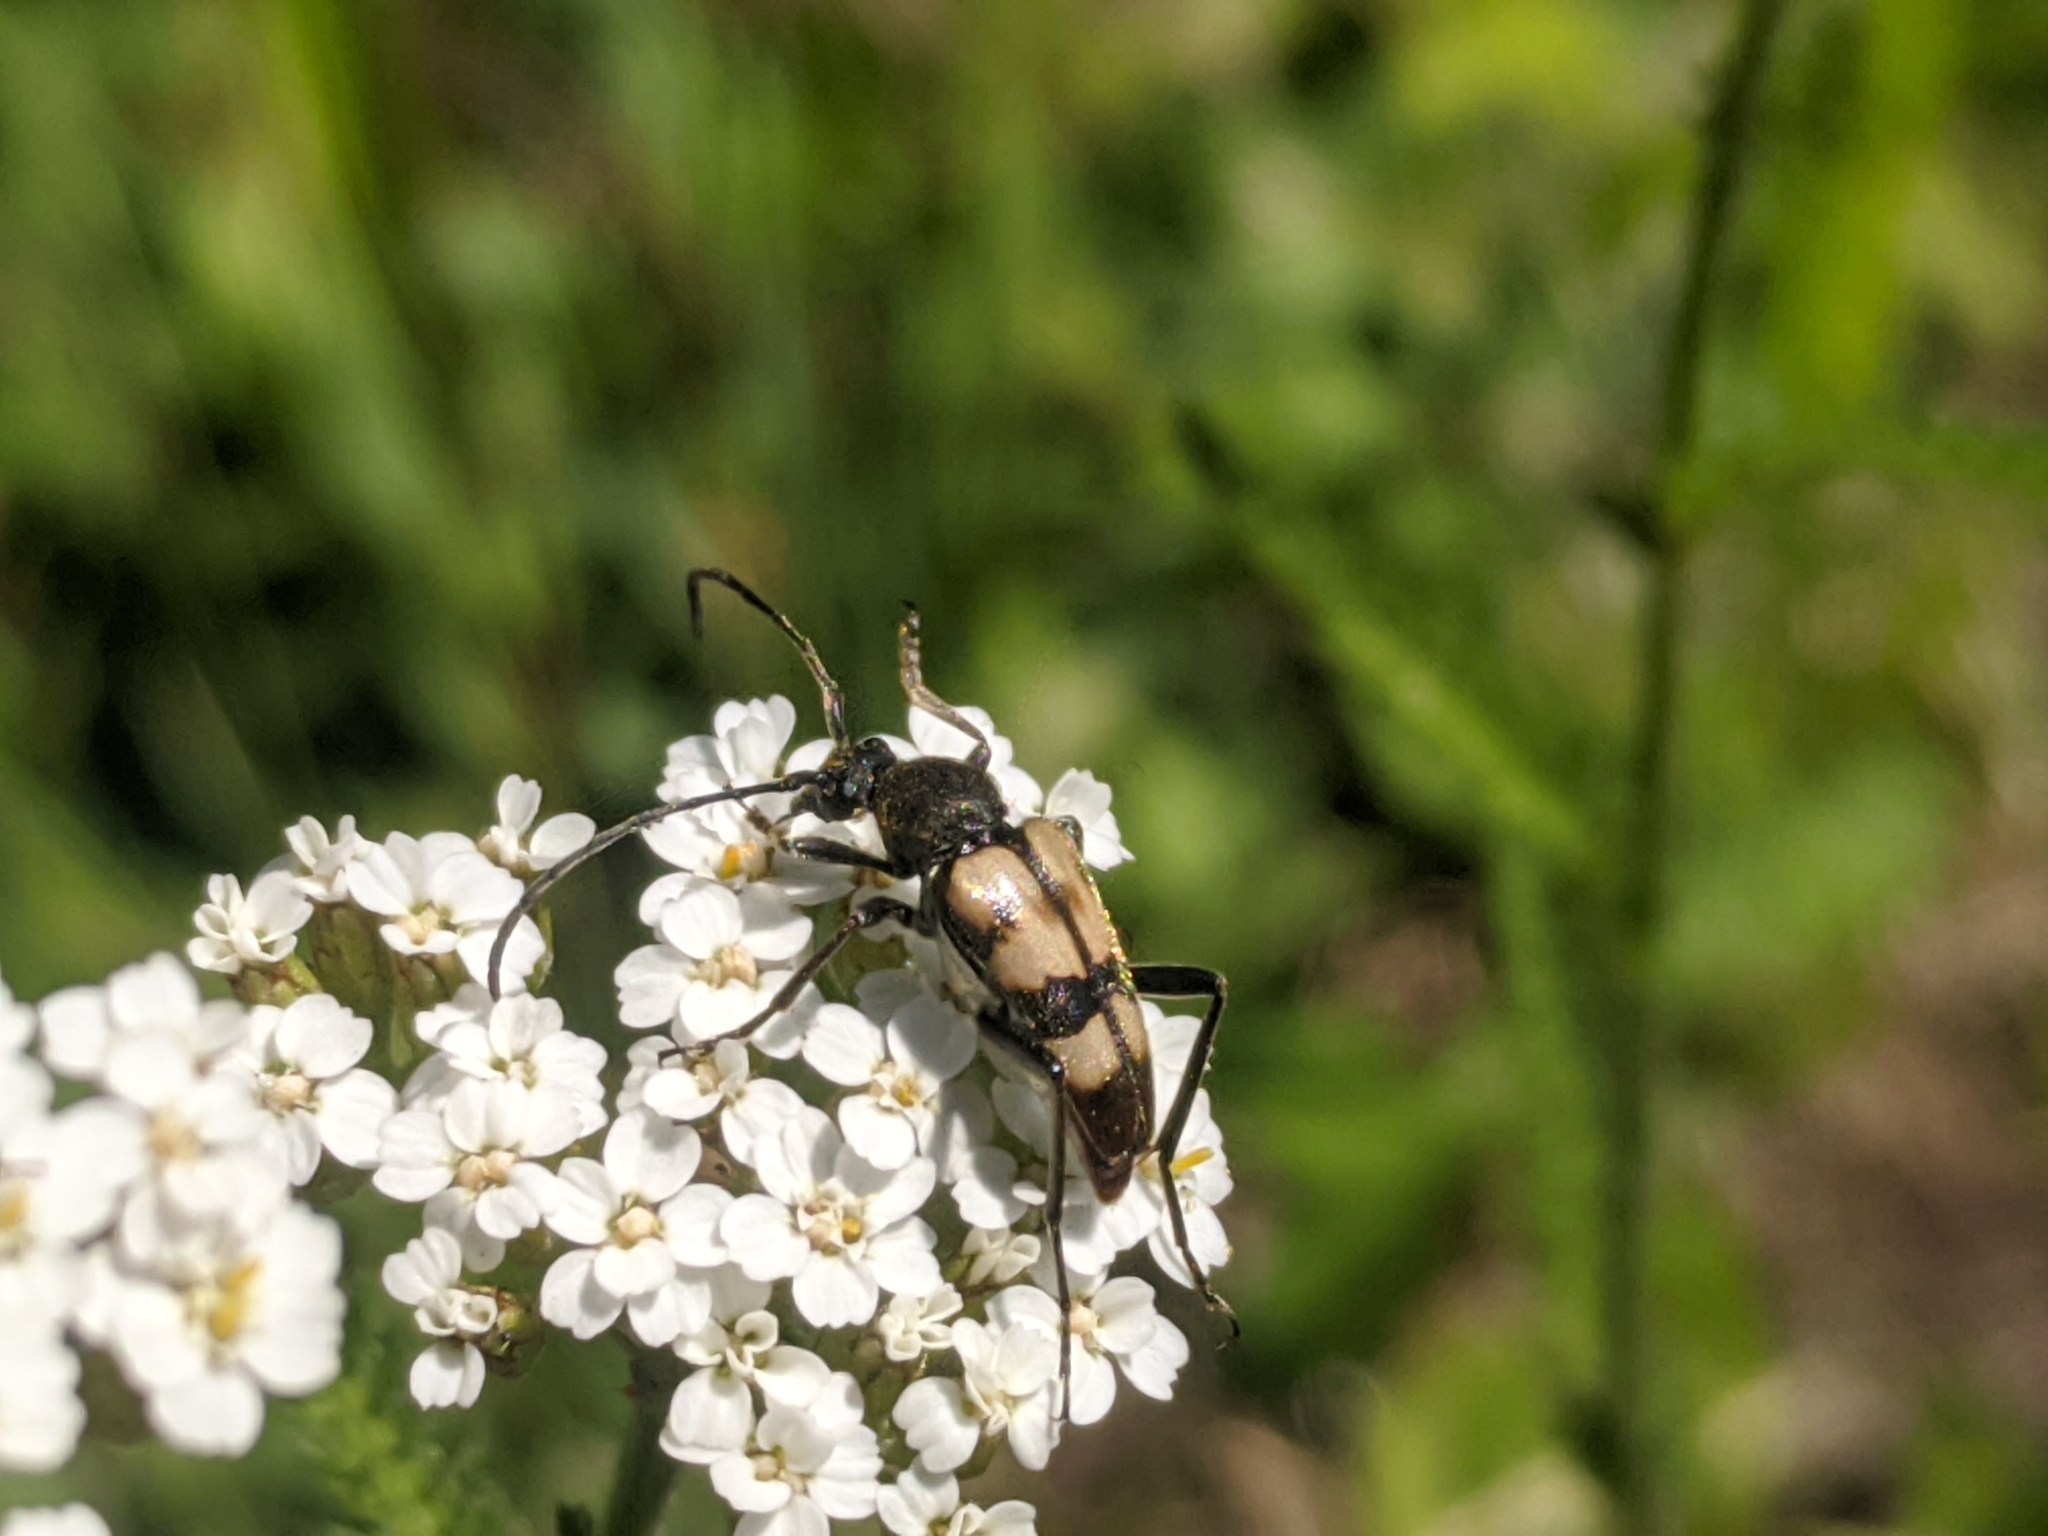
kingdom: Animalia
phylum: Arthropoda
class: Insecta
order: Coleoptera
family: Cerambycidae
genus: Pachytodes
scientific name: Pachytodes
